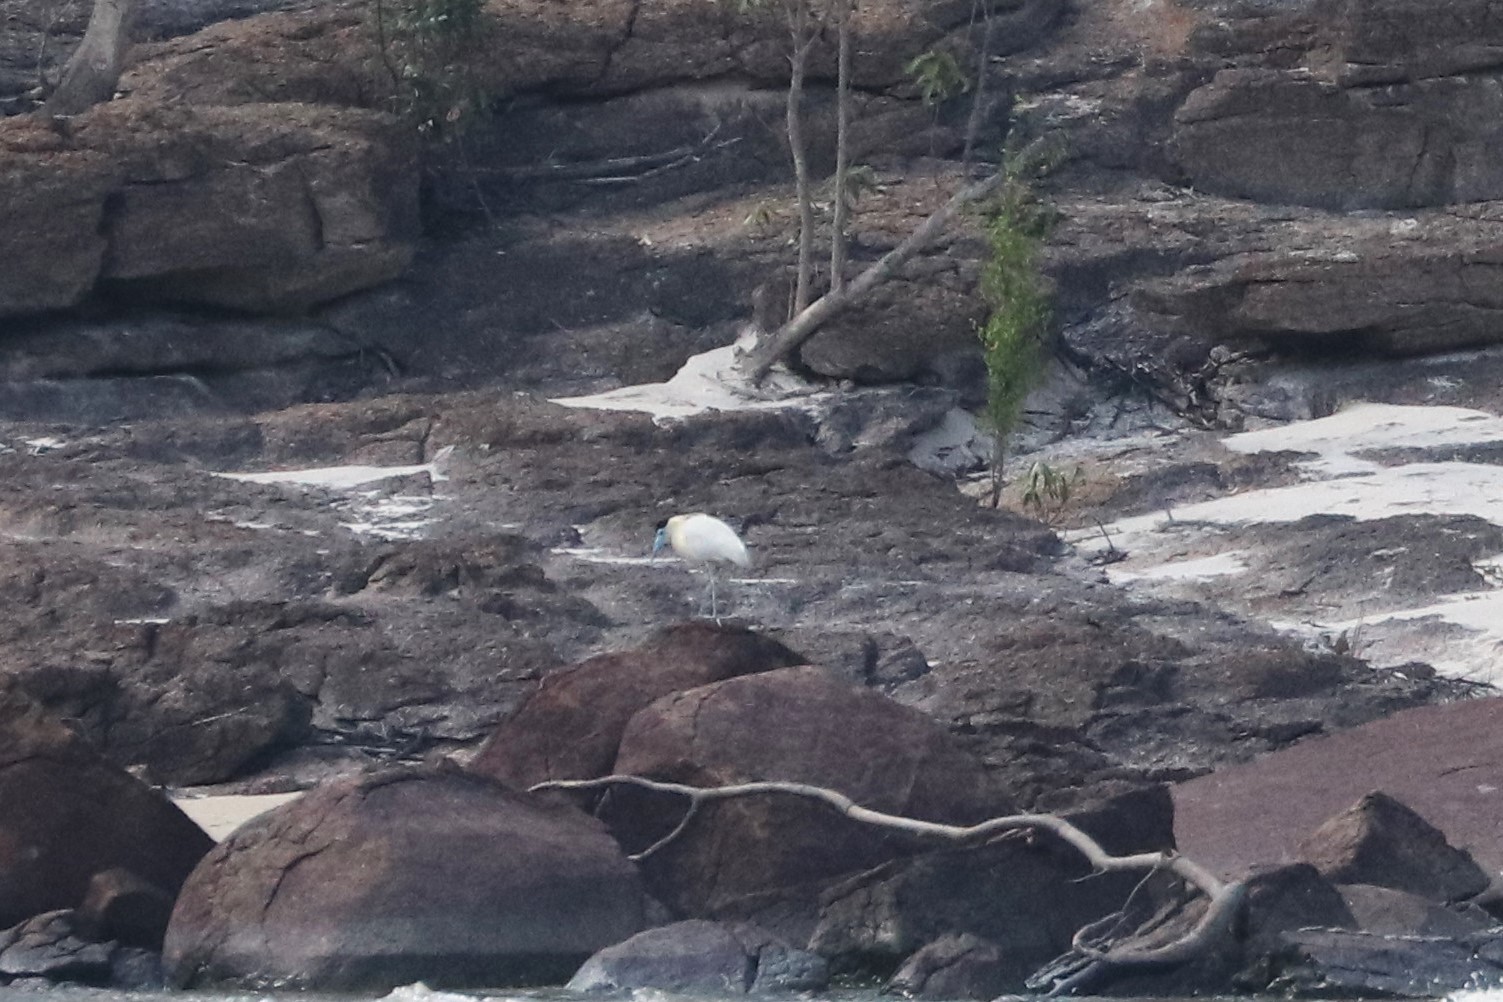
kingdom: Animalia
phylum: Chordata
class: Aves
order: Pelecaniformes
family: Ardeidae
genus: Pilherodius
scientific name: Pilherodius pileatus
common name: Capped heron
